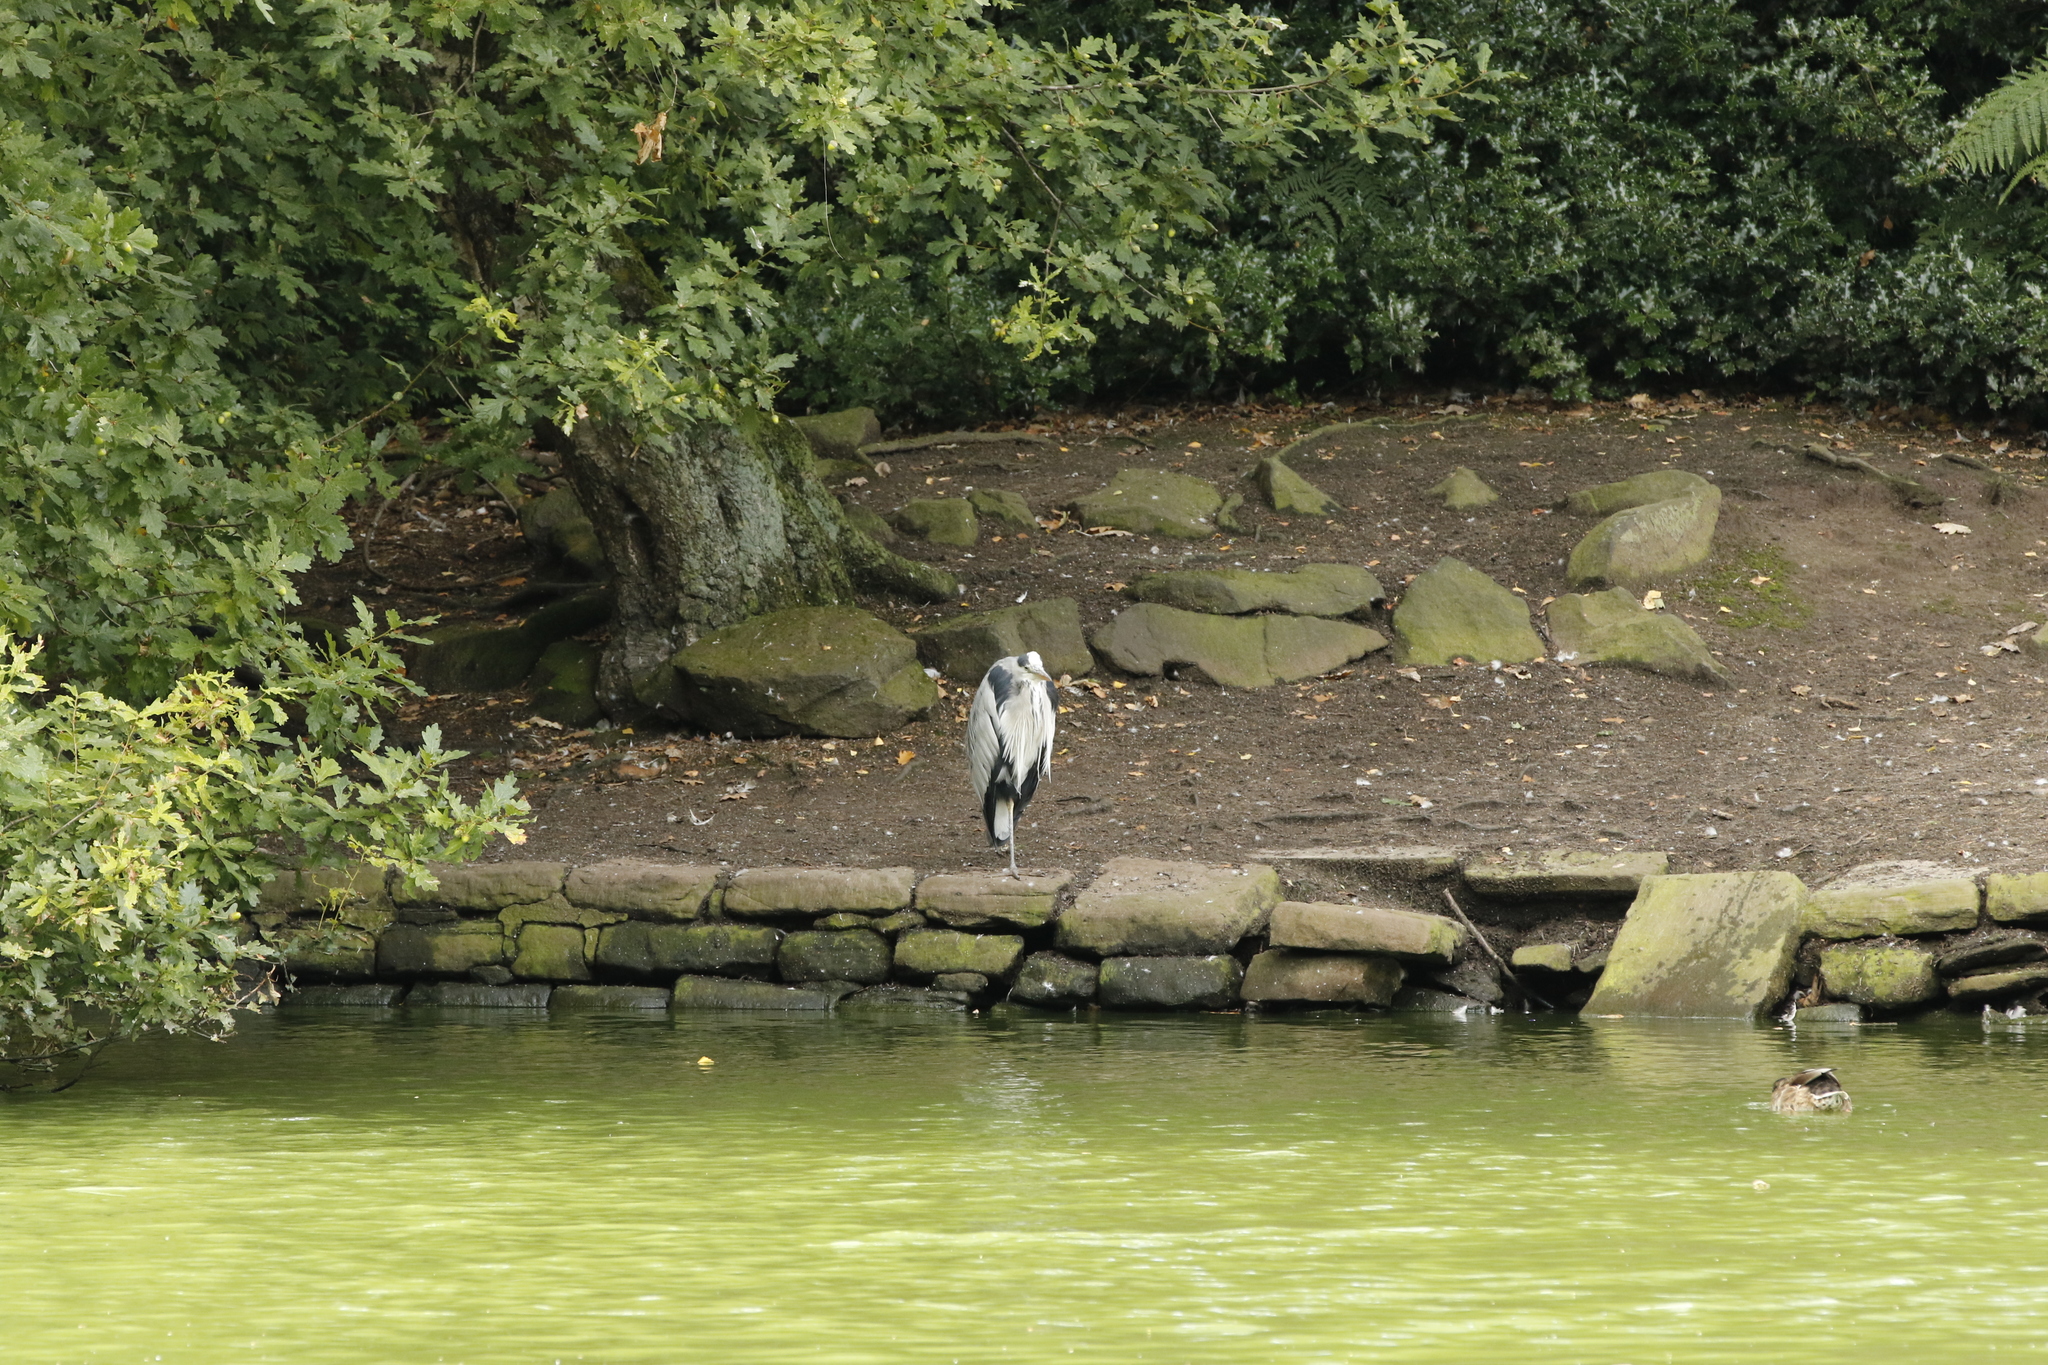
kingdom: Animalia
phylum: Chordata
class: Aves
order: Pelecaniformes
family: Ardeidae
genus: Ardea
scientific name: Ardea cinerea
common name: Grey heron
